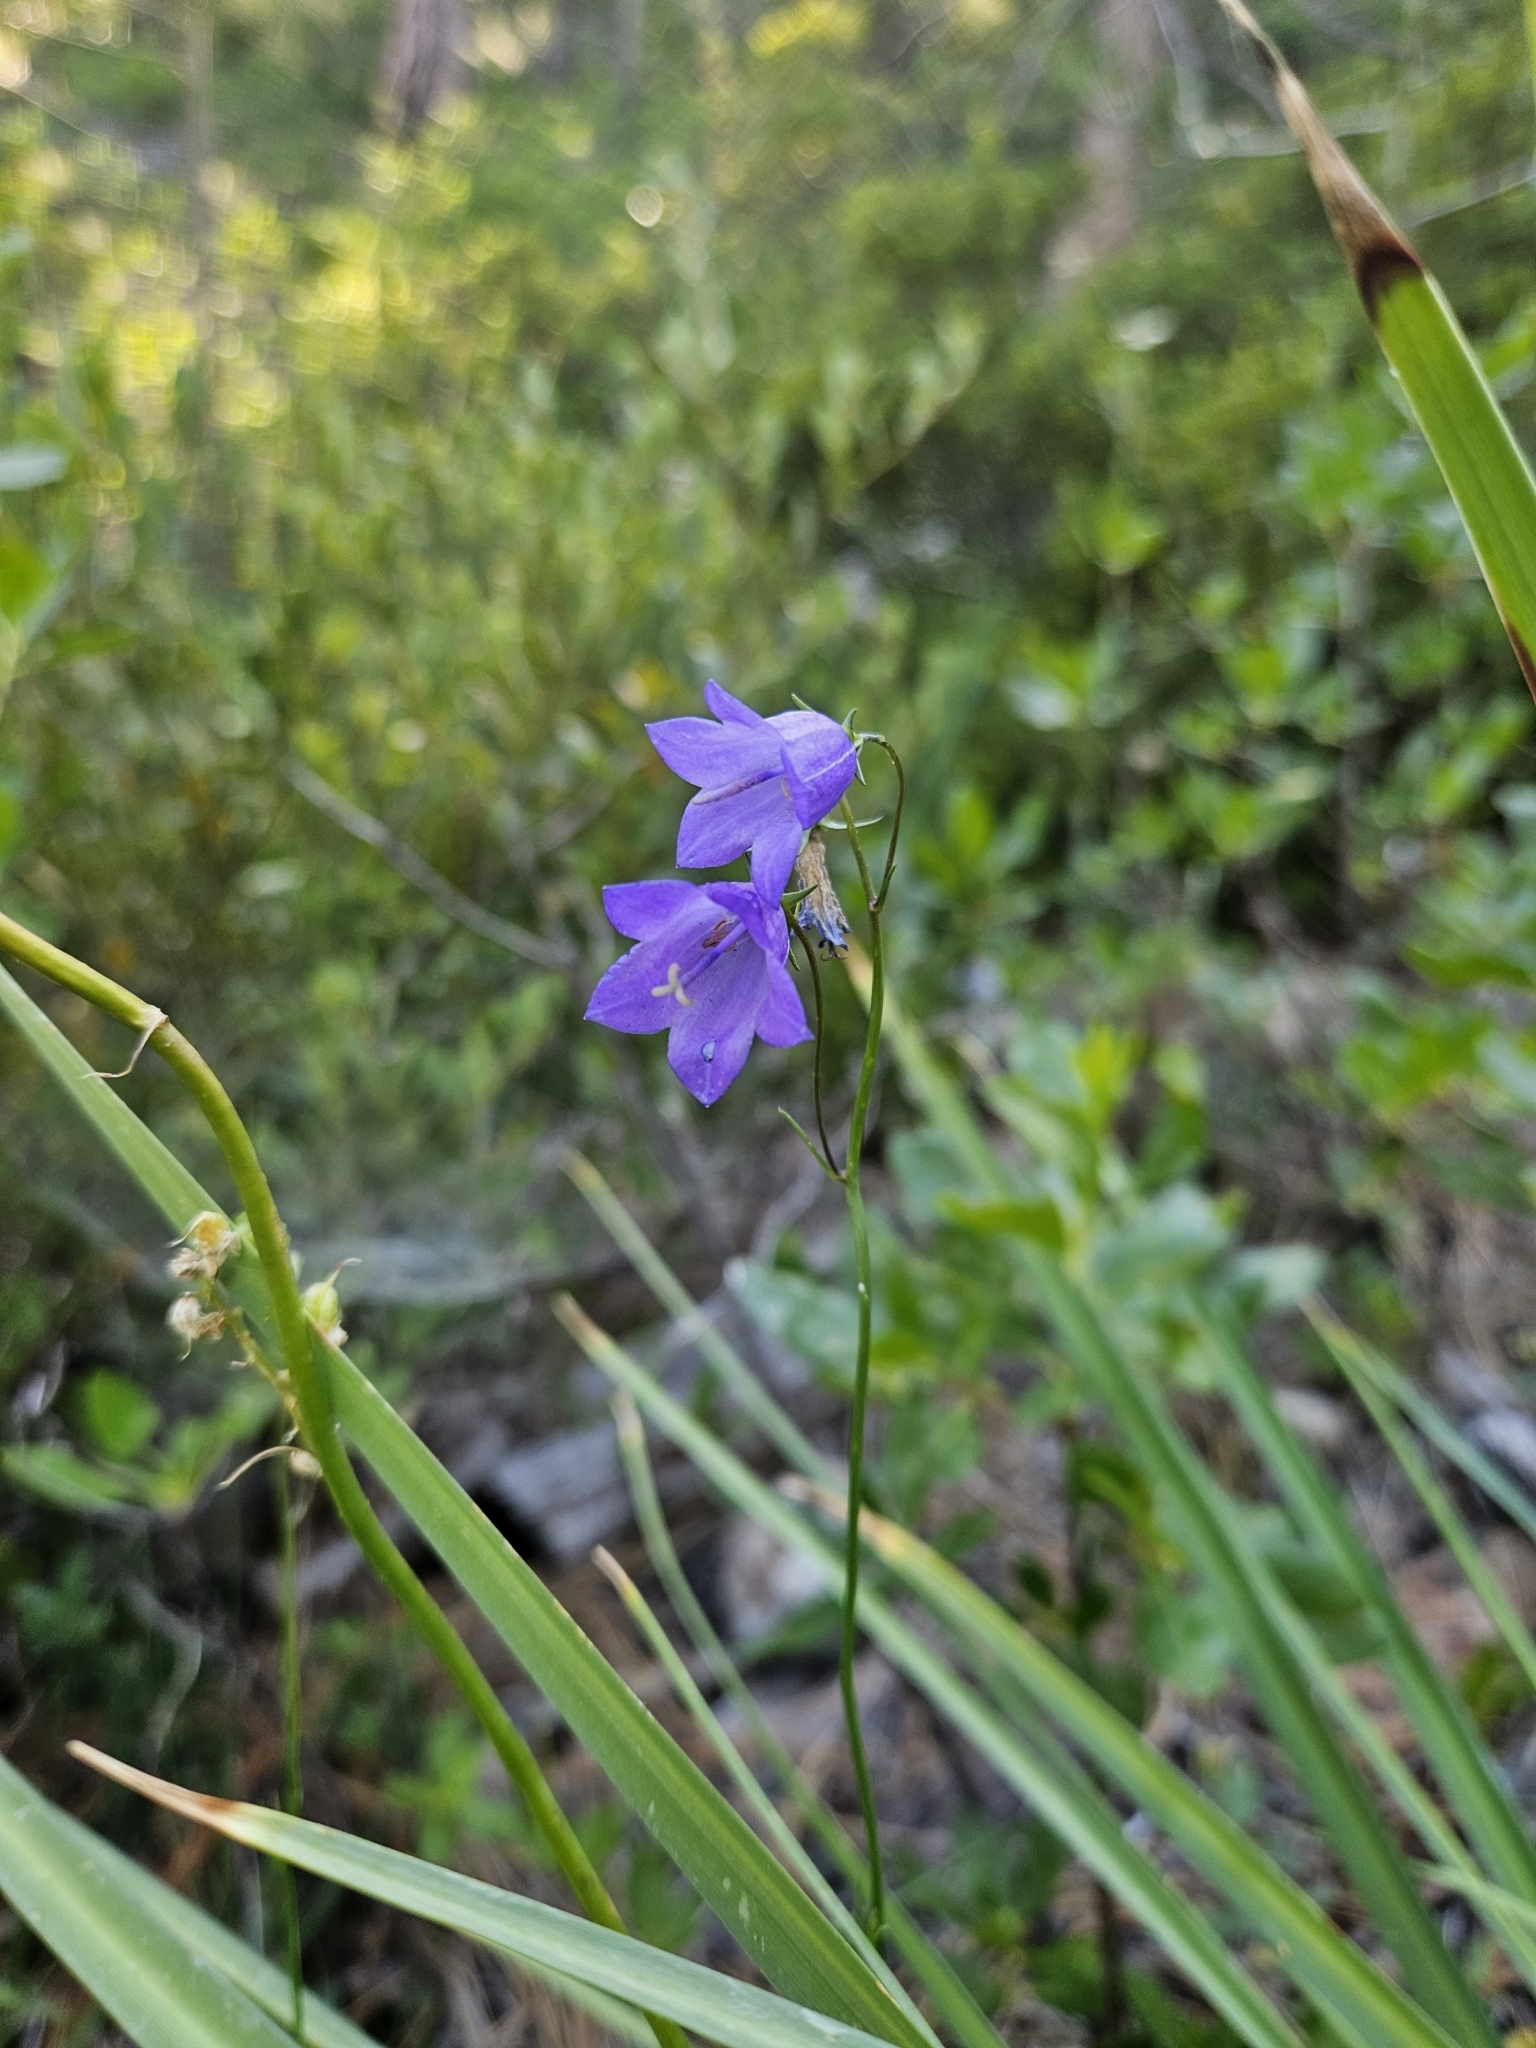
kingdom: Plantae
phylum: Tracheophyta
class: Magnoliopsida
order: Asterales
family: Campanulaceae
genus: Campanula
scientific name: Campanula petiolata
